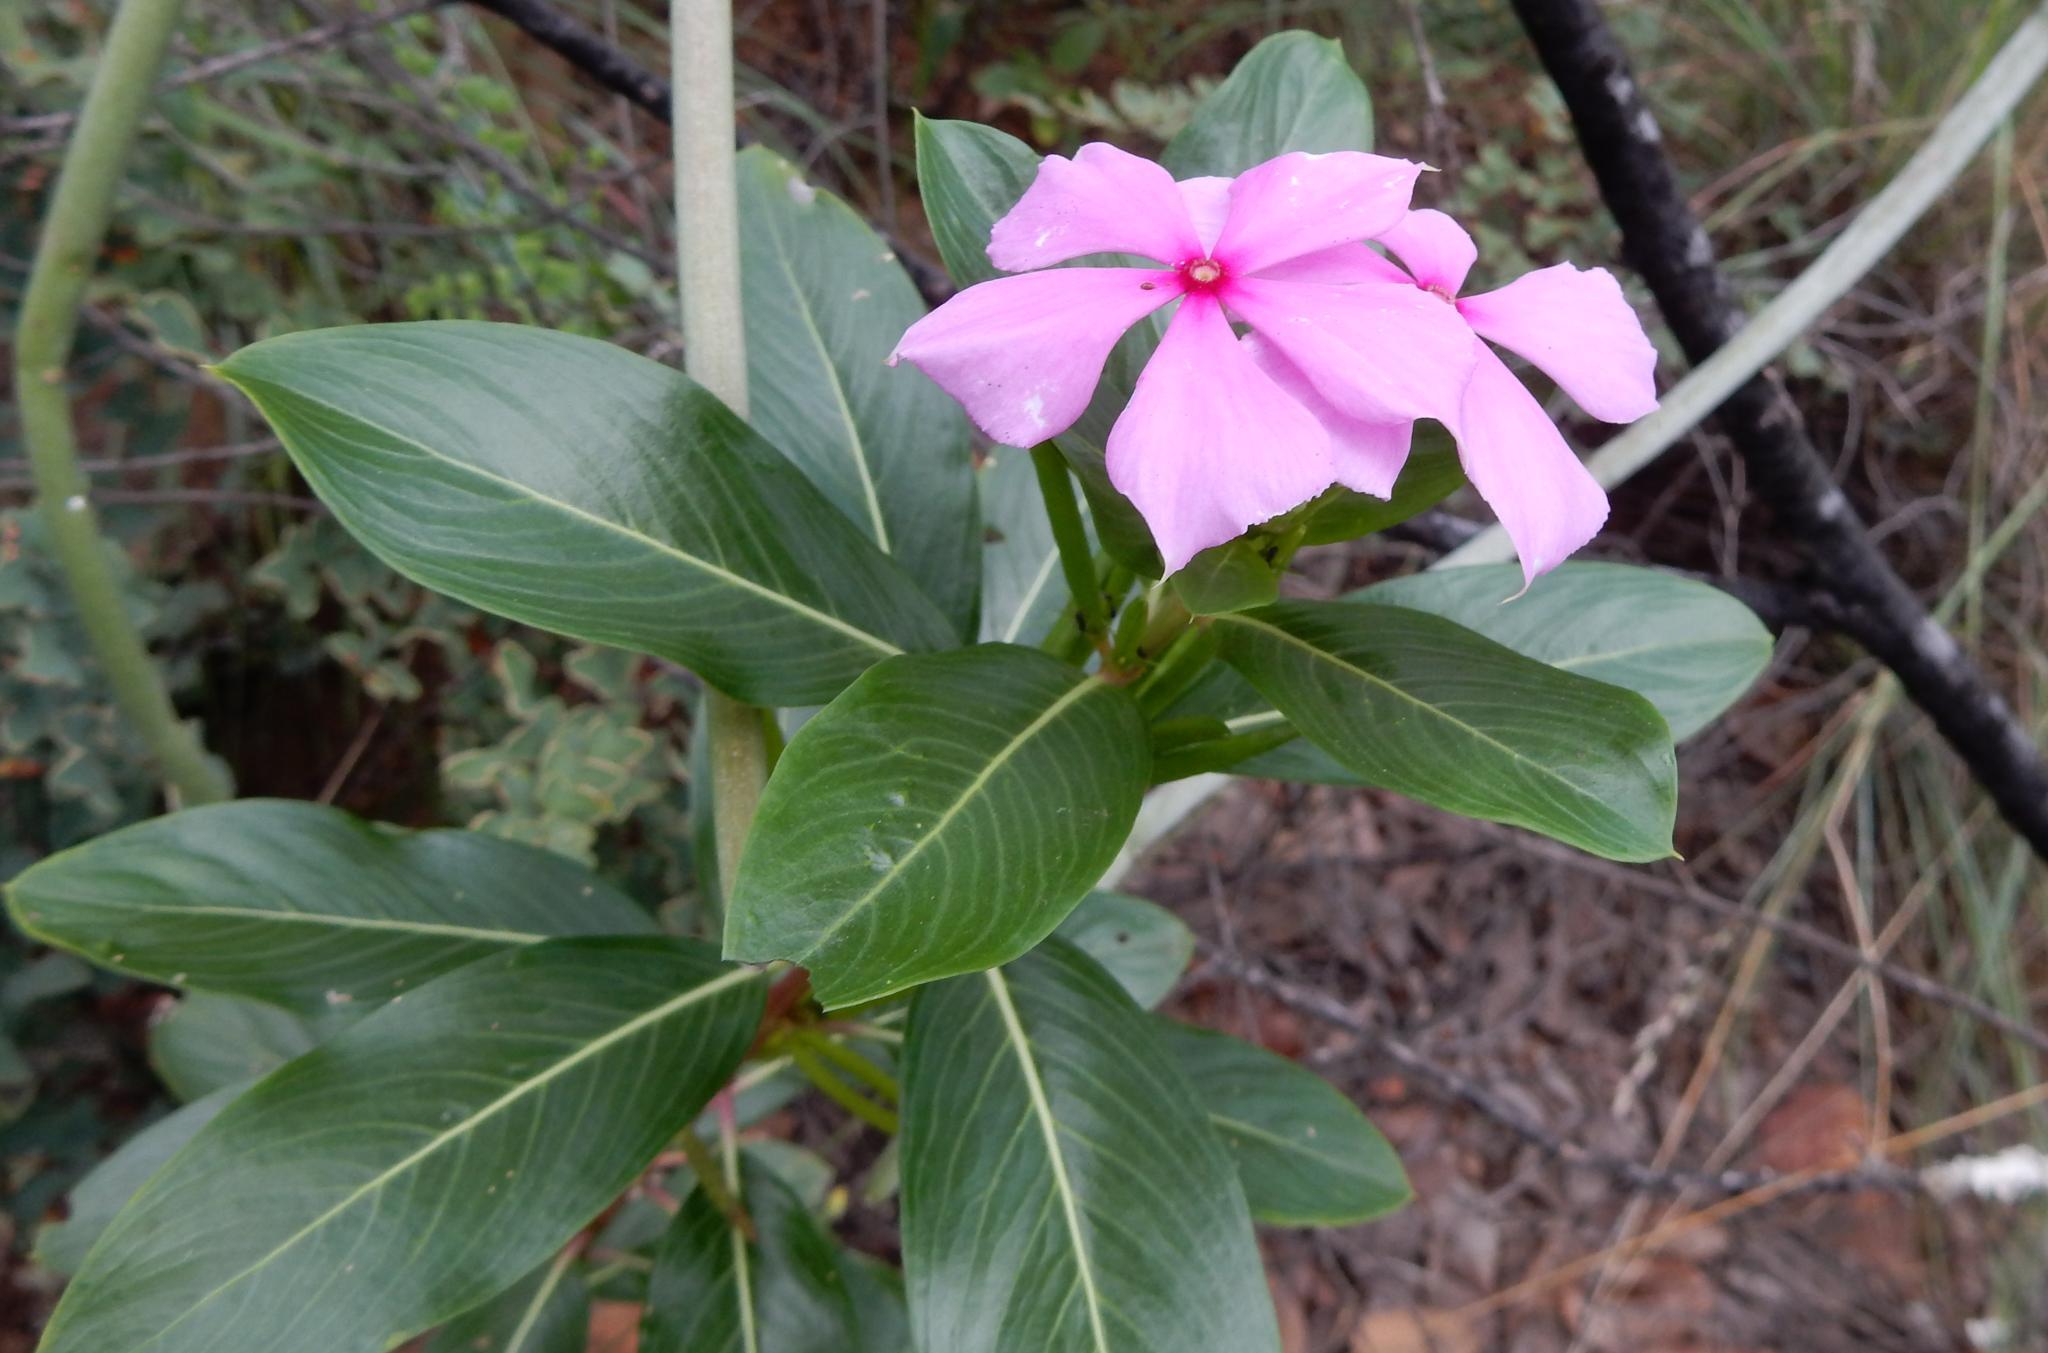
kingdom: Plantae
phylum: Tracheophyta
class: Magnoliopsida
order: Gentianales
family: Apocynaceae
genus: Catharanthus
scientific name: Catharanthus roseus
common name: Madagascar periwinkle
